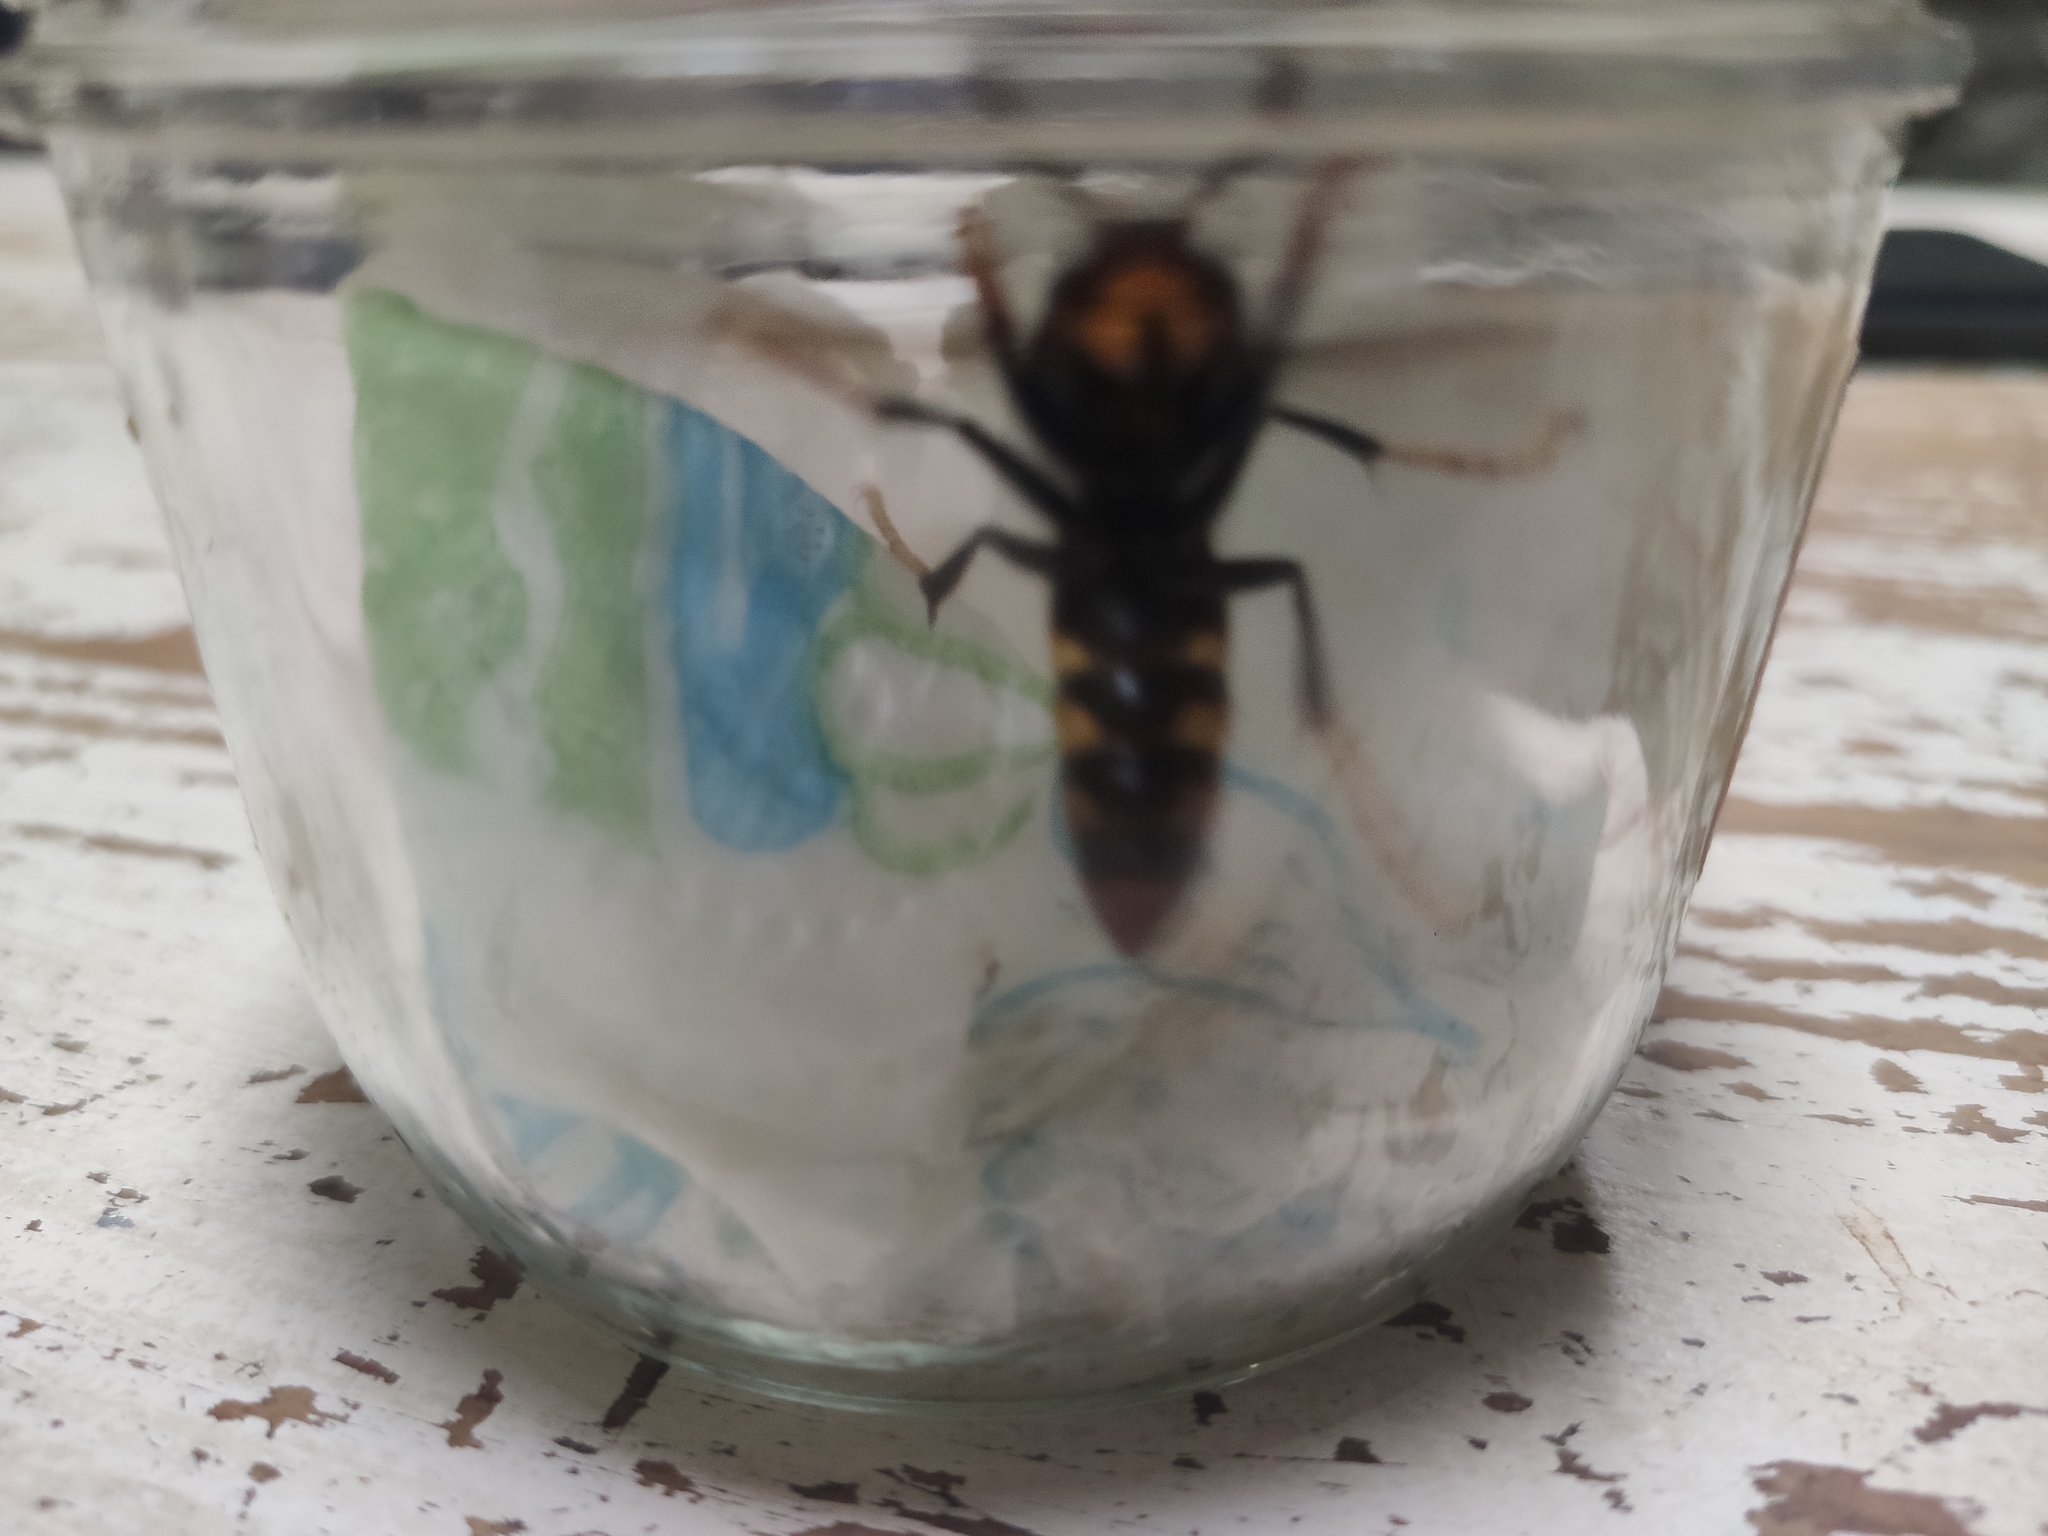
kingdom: Animalia
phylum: Arthropoda
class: Insecta
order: Hymenoptera
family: Vespidae
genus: Vespa
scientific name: Vespa velutina
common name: Asian hornet
